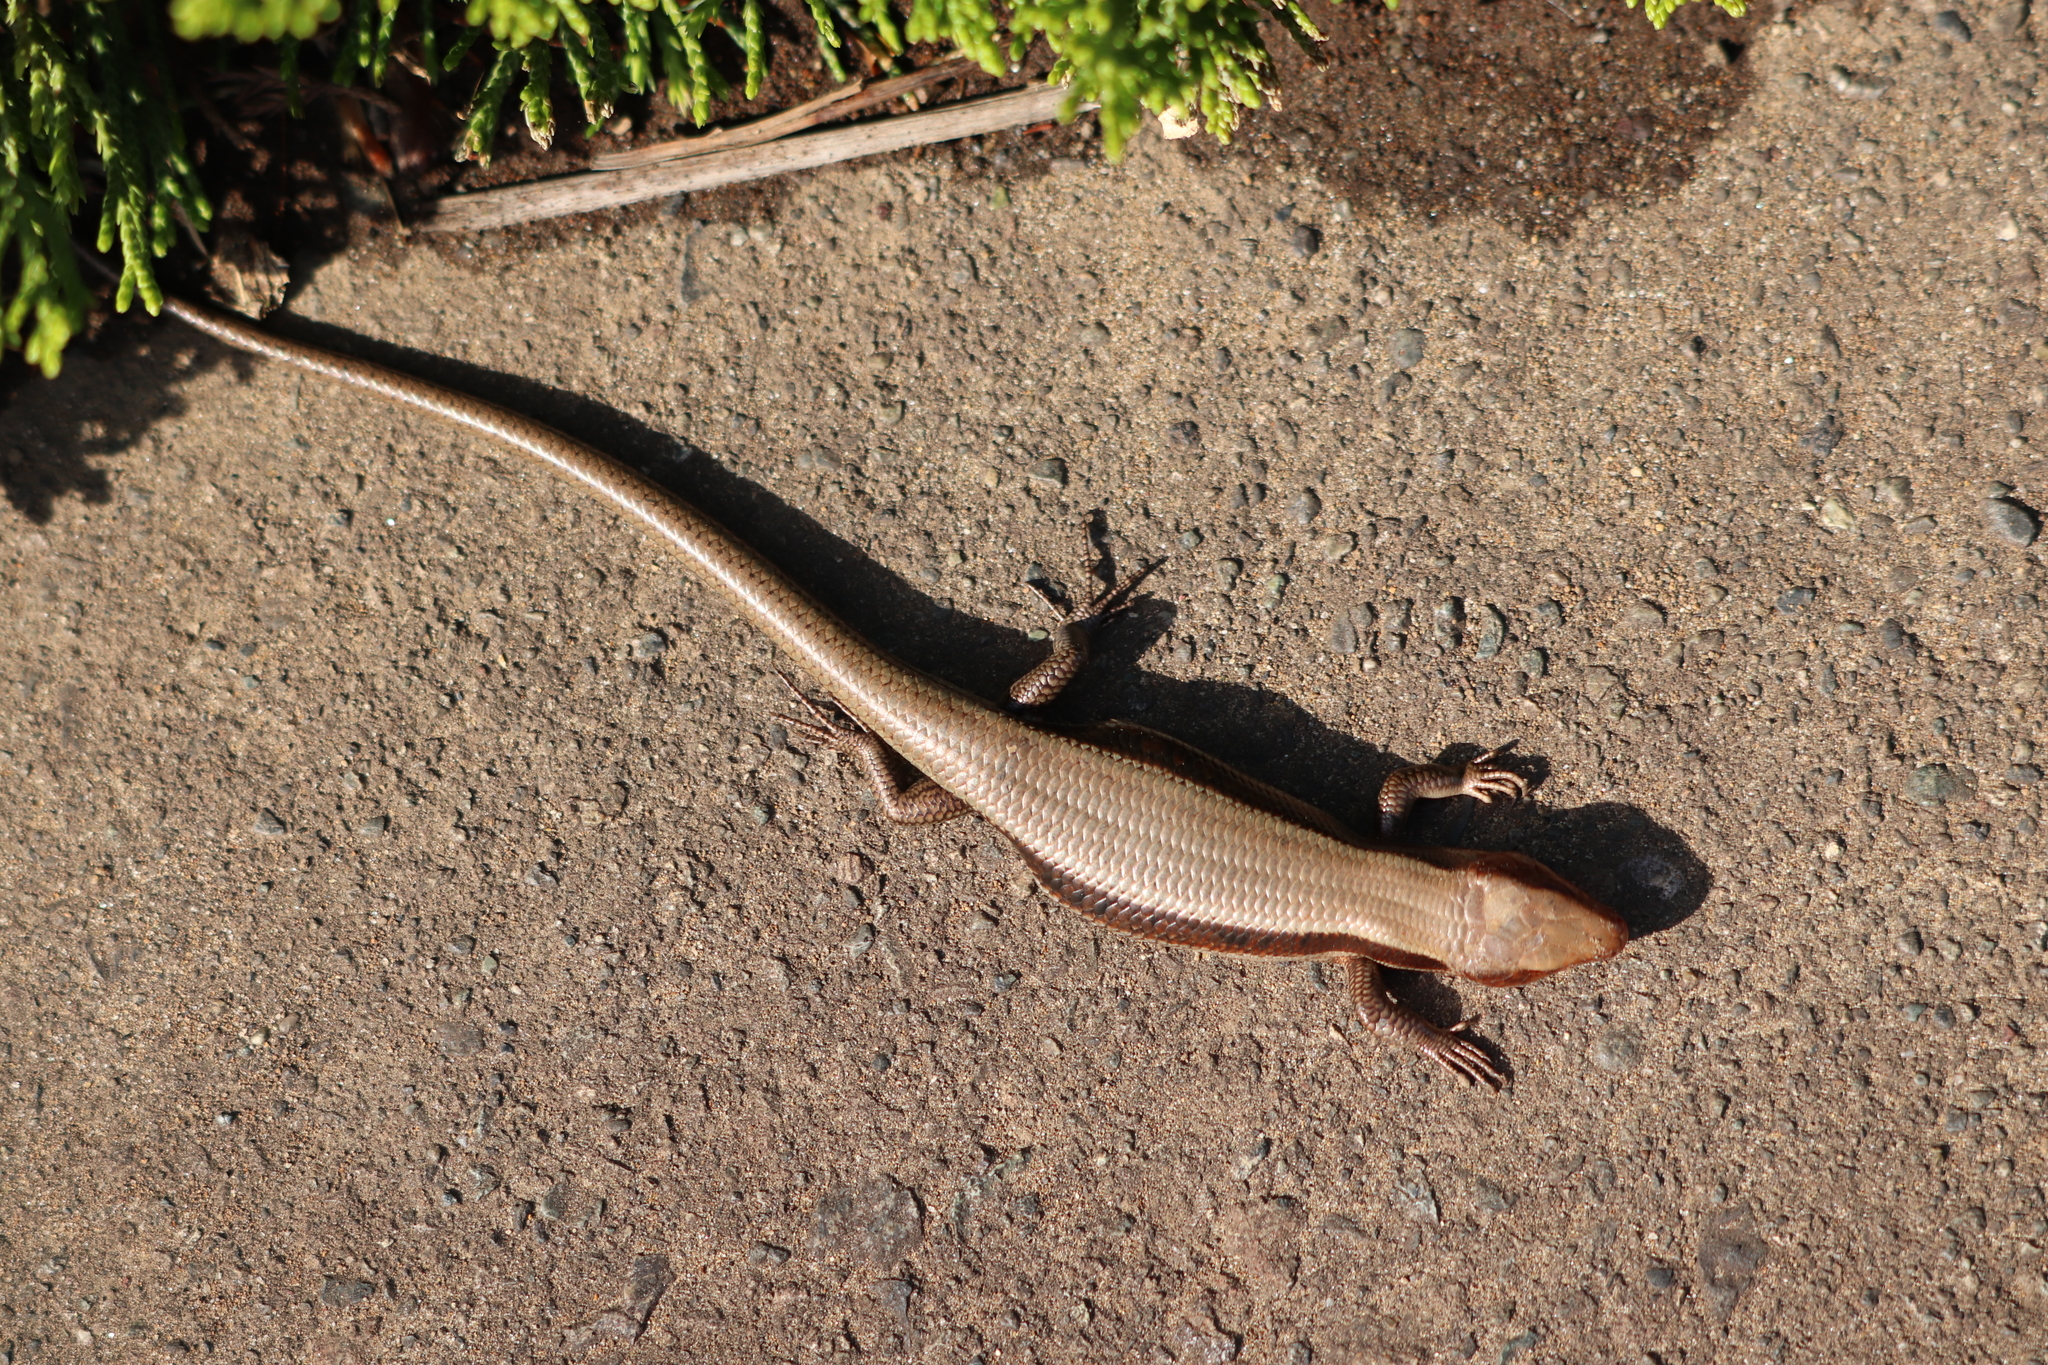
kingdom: Animalia
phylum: Chordata
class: Squamata
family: Scincidae
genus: Plestiodon
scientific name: Plestiodon finitimus
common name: Far eastern skink
